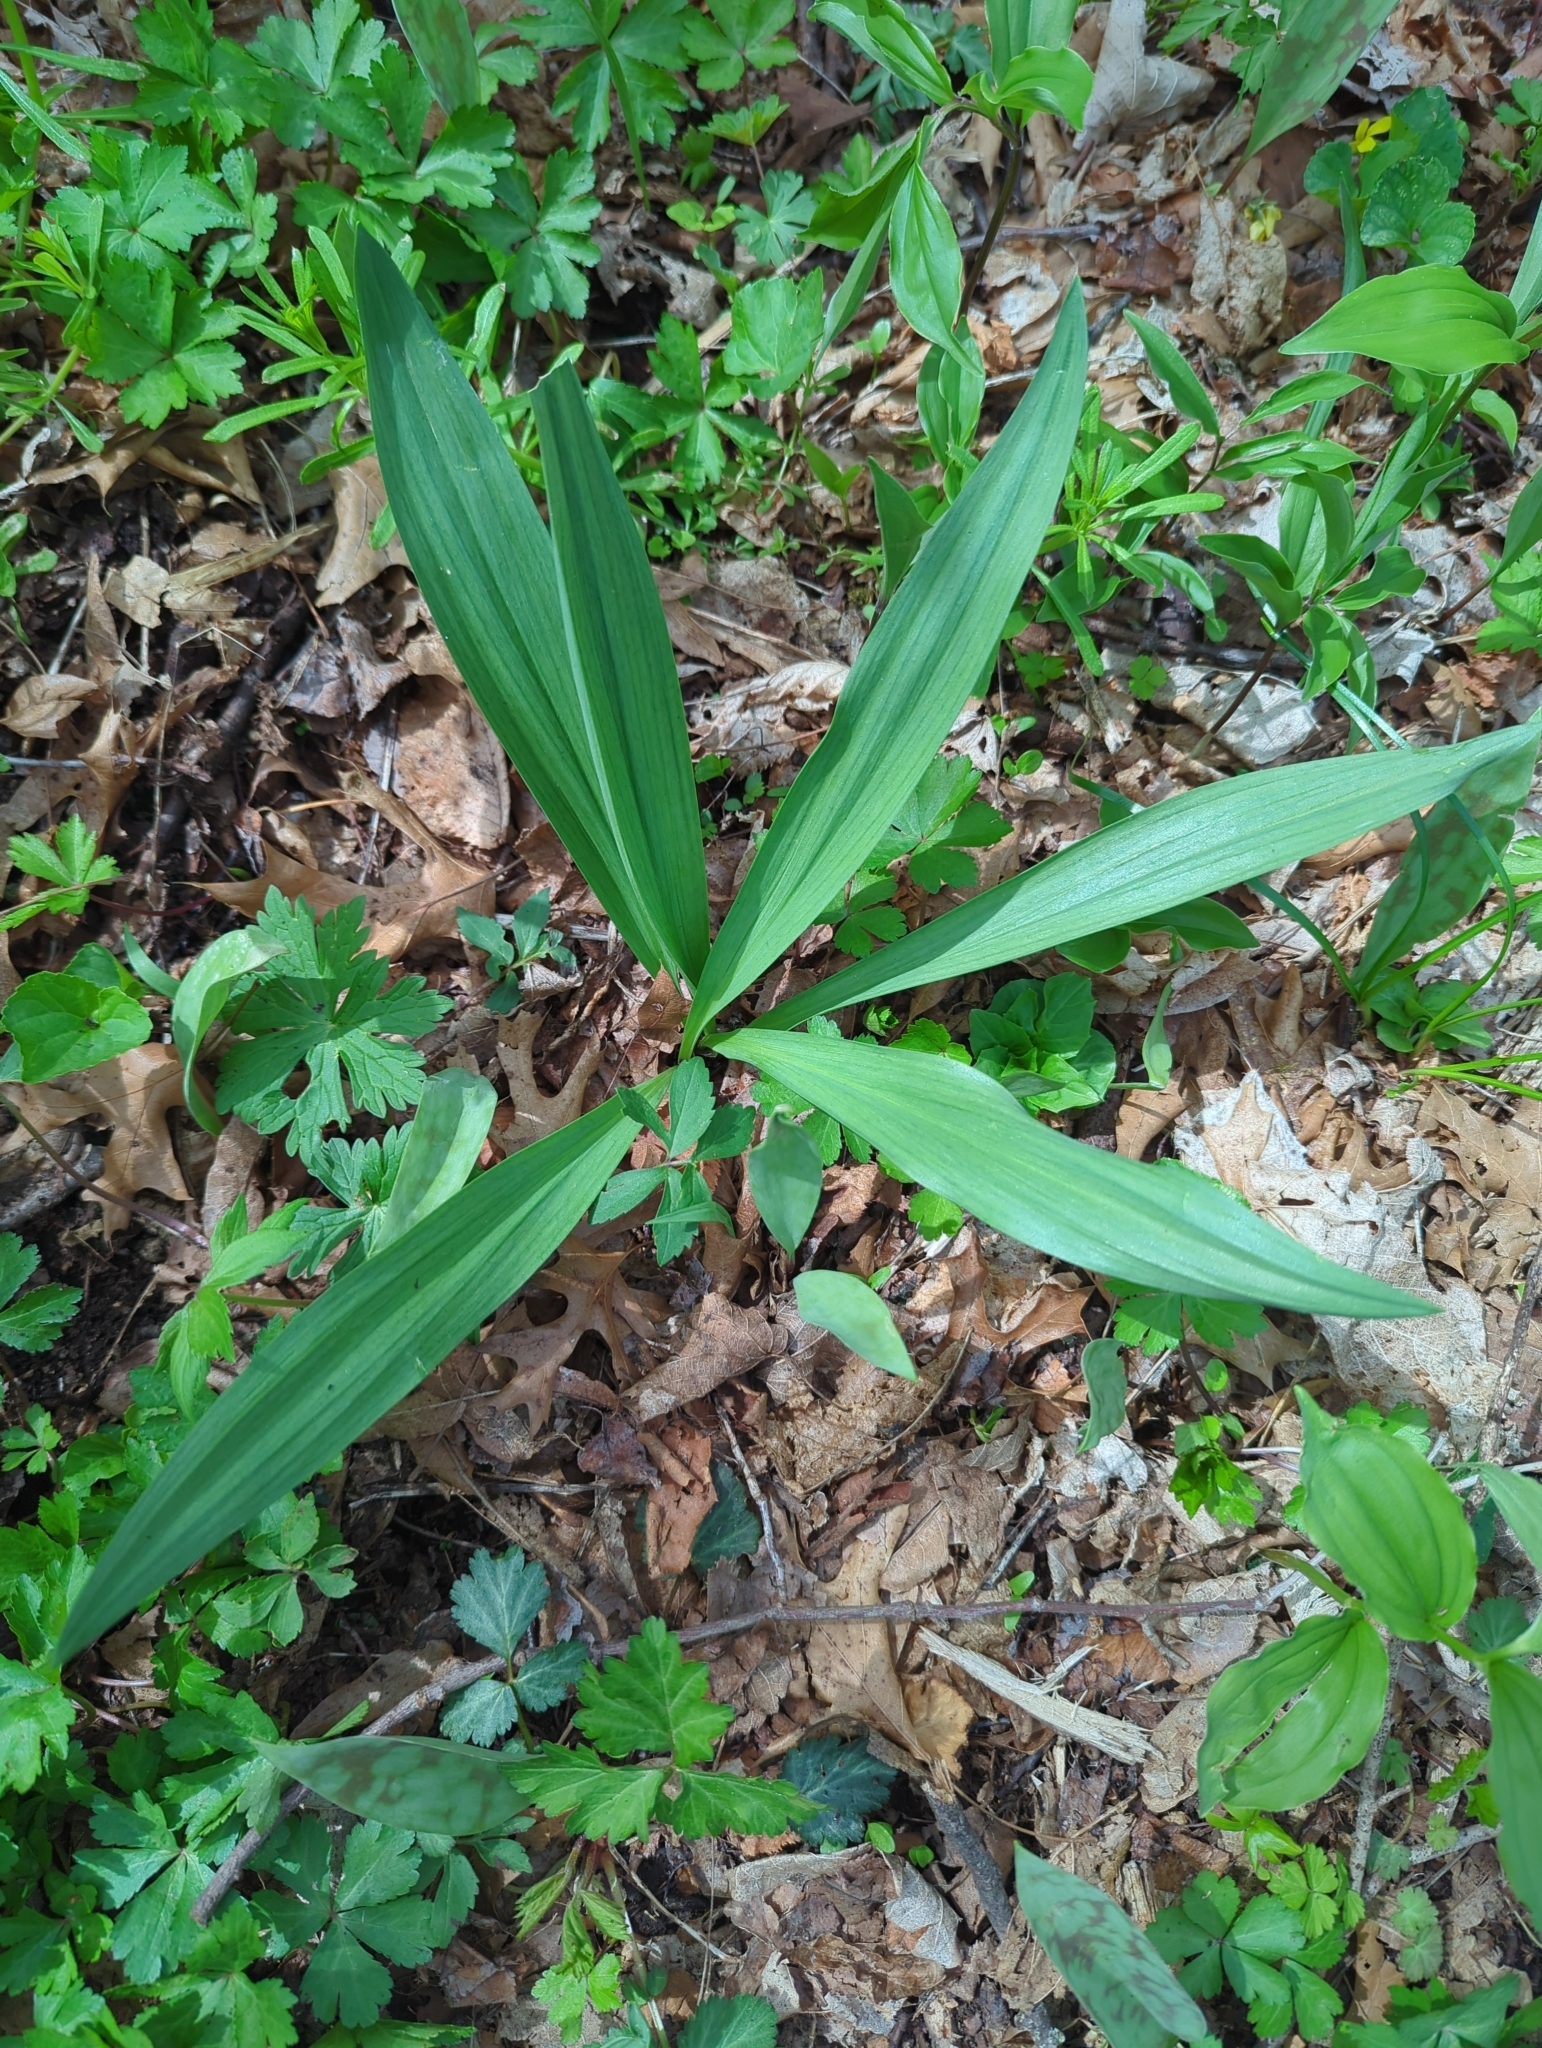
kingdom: Plantae
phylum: Tracheophyta
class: Liliopsida
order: Asparagales
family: Amaryllidaceae
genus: Allium
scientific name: Allium tricoccum
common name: Ramp
